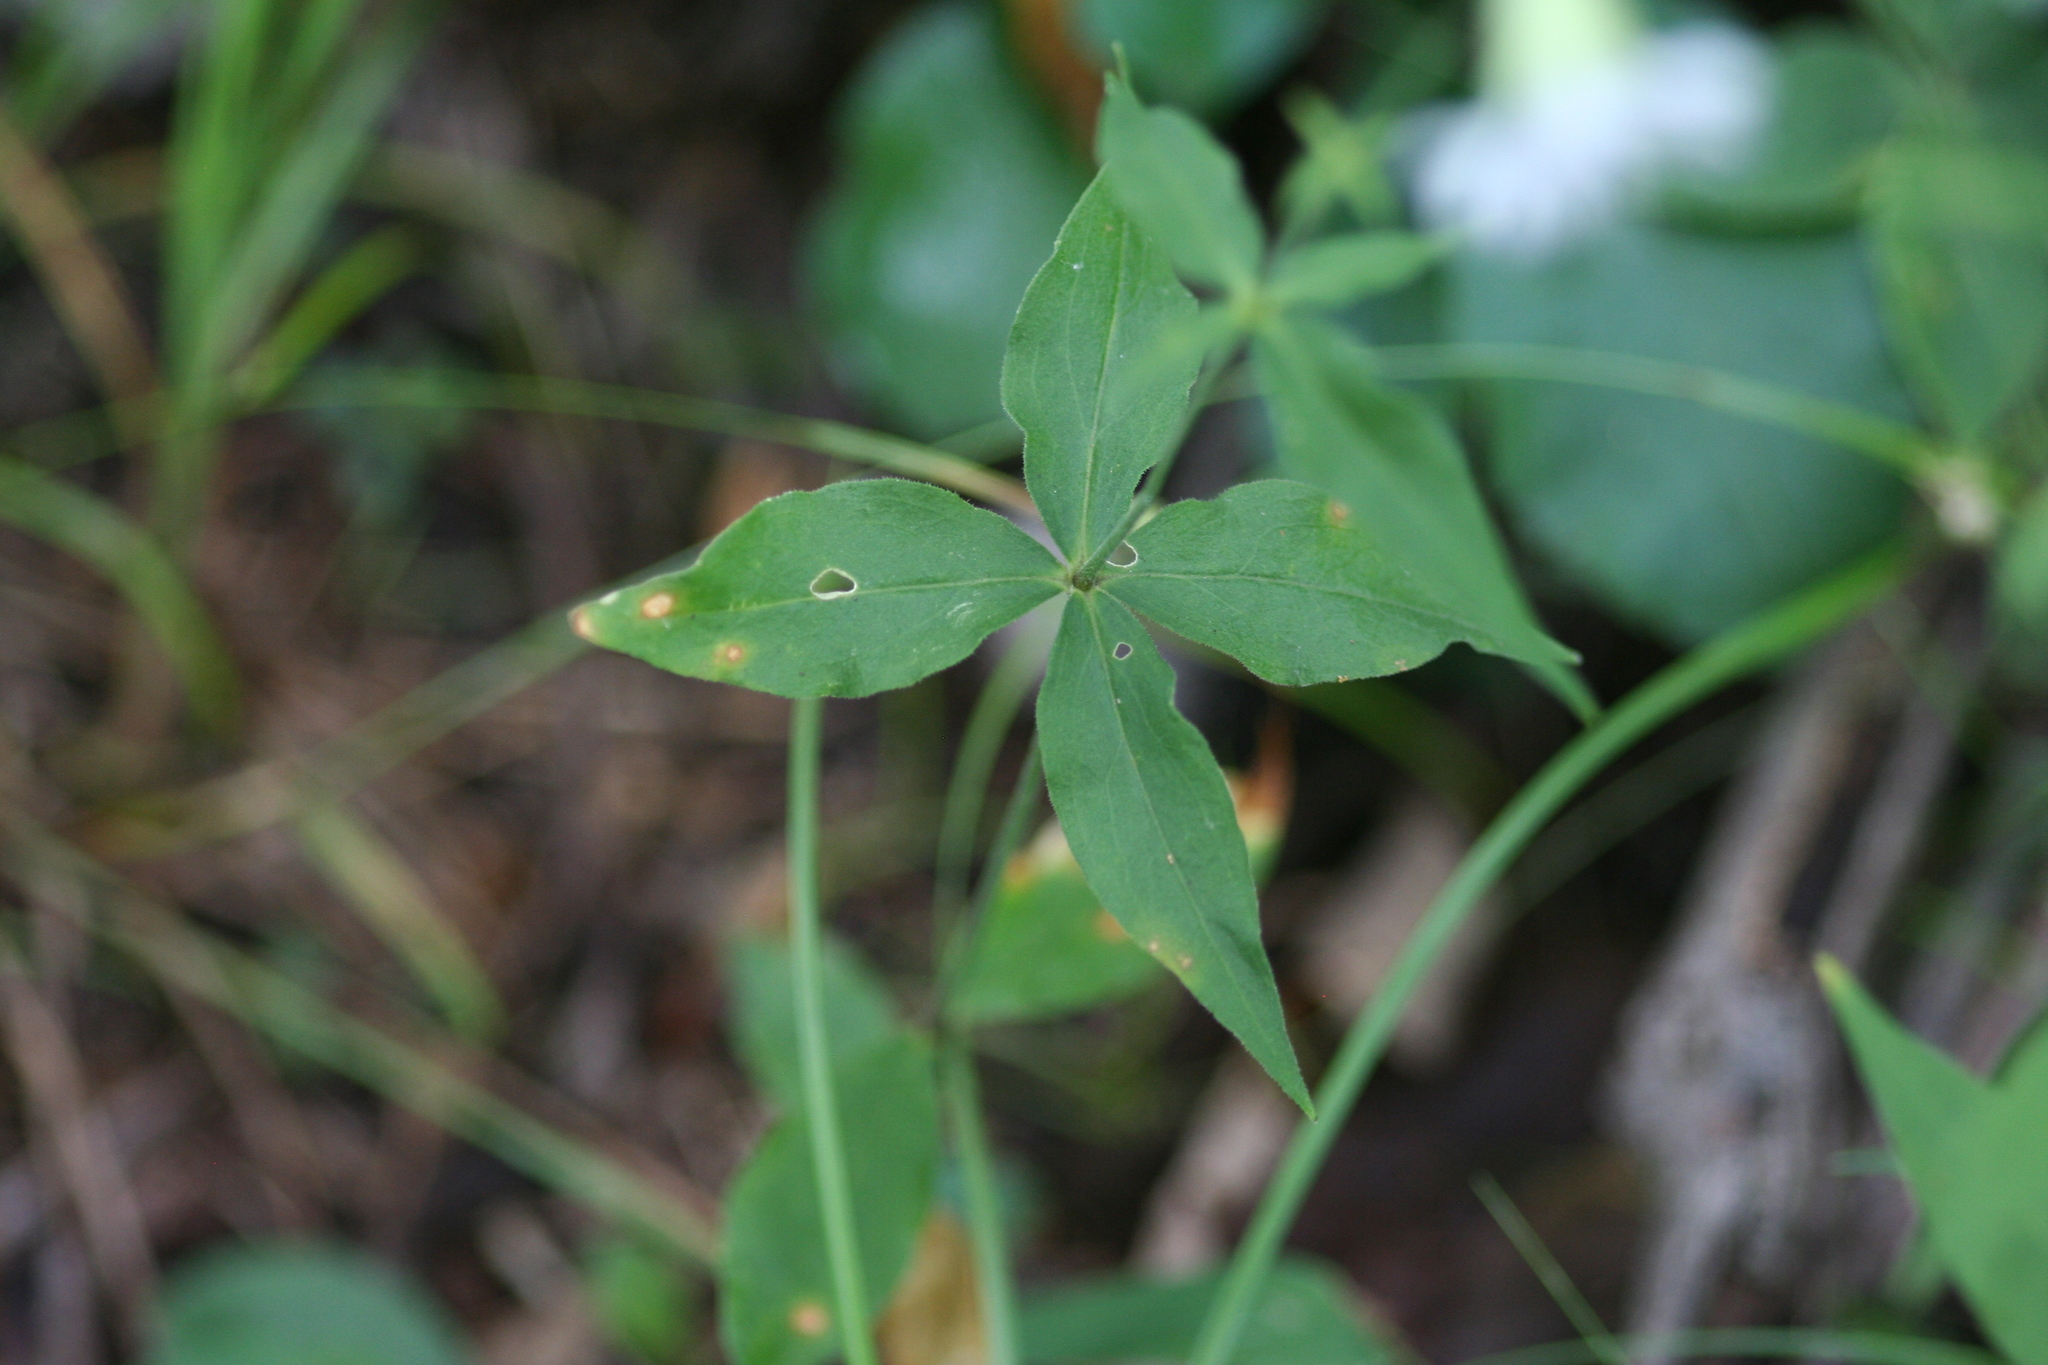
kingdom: Plantae
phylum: Tracheophyta
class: Magnoliopsida
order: Caryophyllales
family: Caryophyllaceae
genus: Silene
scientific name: Silene stellata
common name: Starry campion
